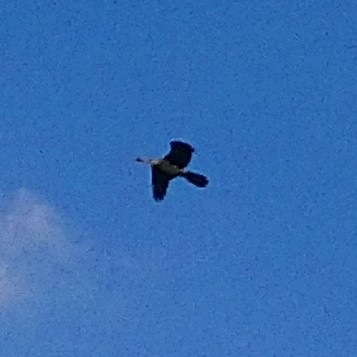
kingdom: Animalia
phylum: Chordata
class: Aves
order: Suliformes
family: Anhingidae
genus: Anhinga
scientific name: Anhinga rufa
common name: African darter
